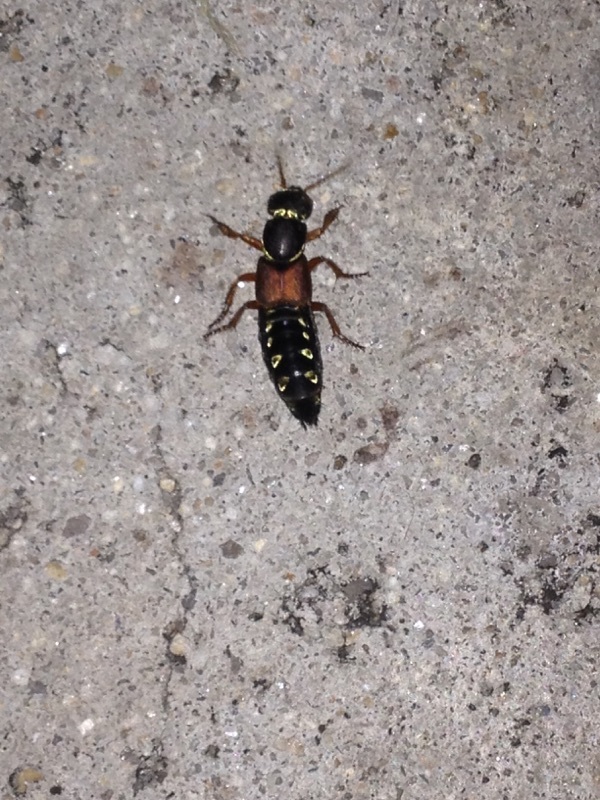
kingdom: Animalia
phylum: Arthropoda
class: Insecta
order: Coleoptera
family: Staphylinidae
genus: Staphylinus
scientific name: Staphylinus caesareus
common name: Staph beetle
